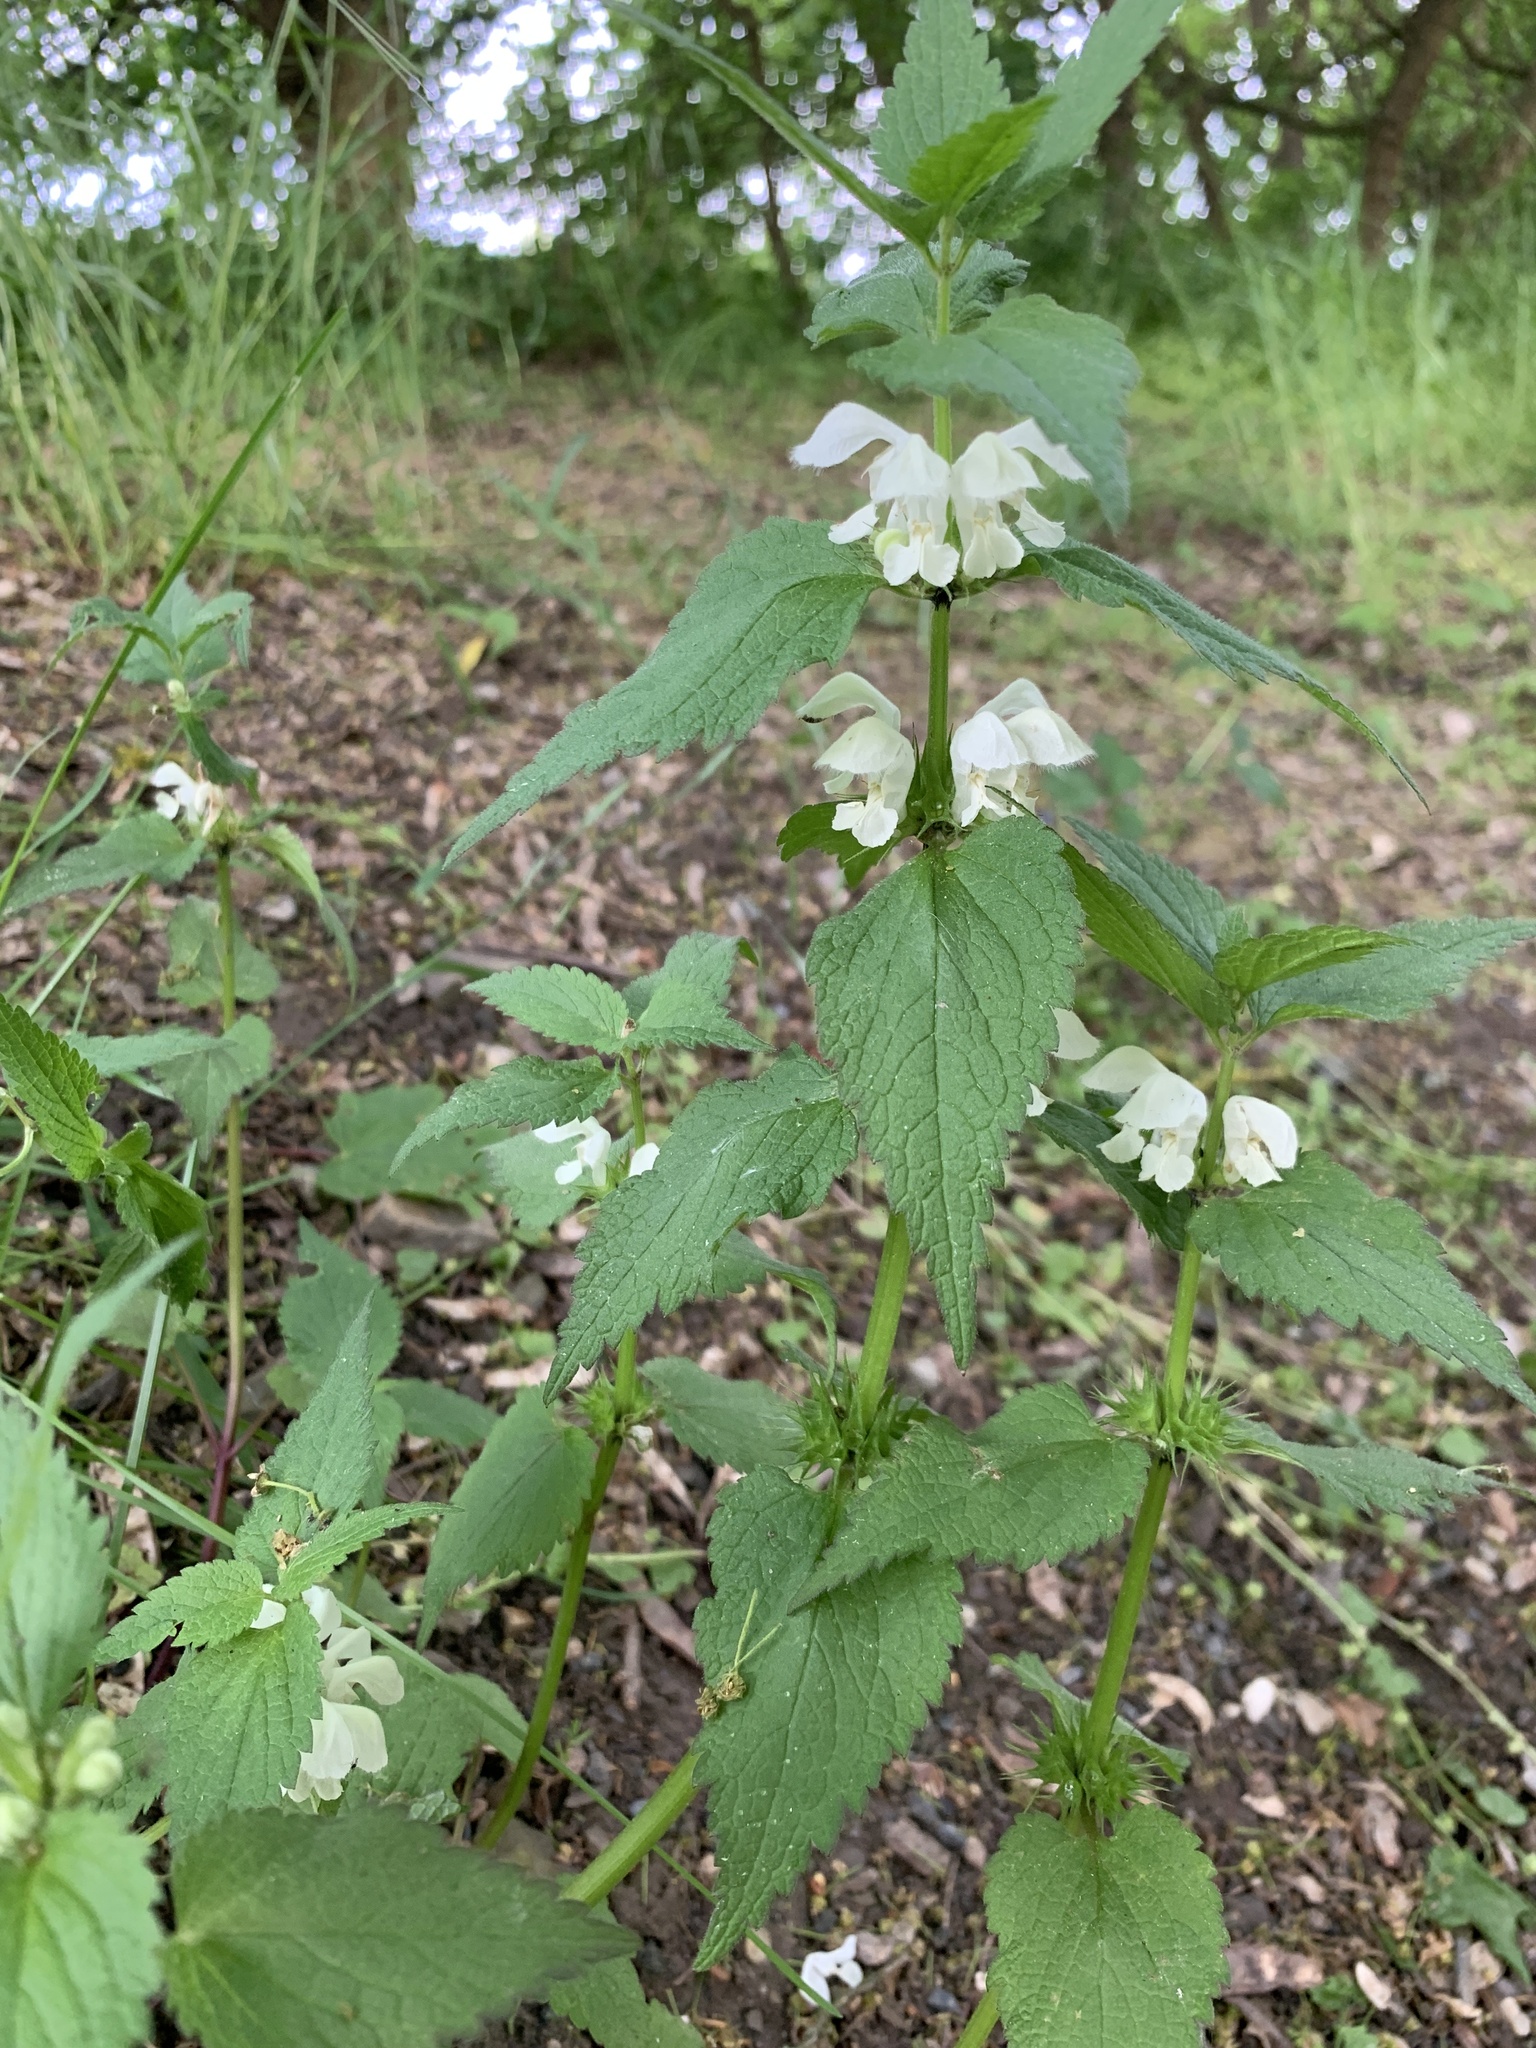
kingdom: Plantae
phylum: Tracheophyta
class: Magnoliopsida
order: Lamiales
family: Lamiaceae
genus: Lamium
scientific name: Lamium album
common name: White dead-nettle
